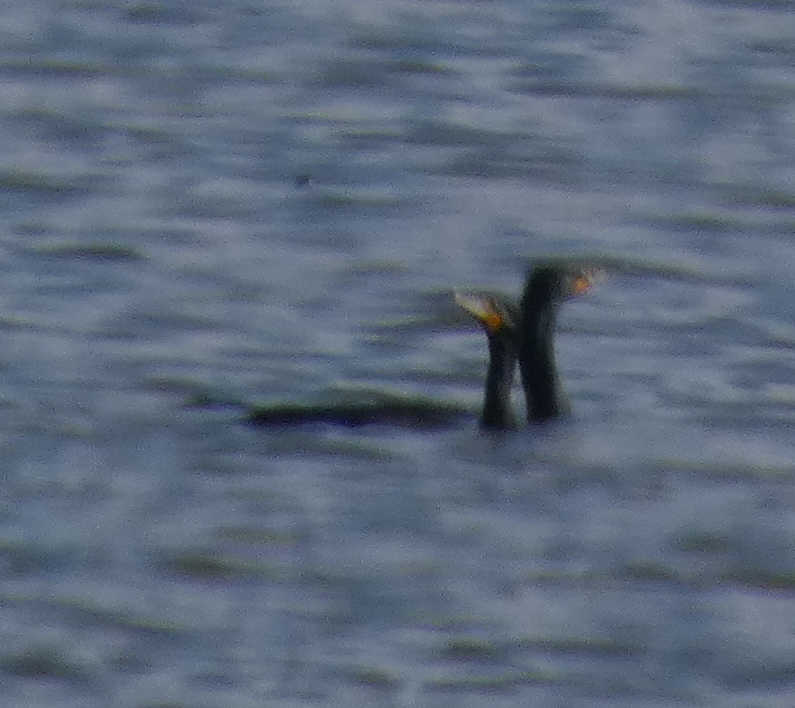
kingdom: Animalia
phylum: Chordata
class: Aves
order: Suliformes
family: Phalacrocoracidae
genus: Phalacrocorax
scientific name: Phalacrocorax auritus
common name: Double-crested cormorant
